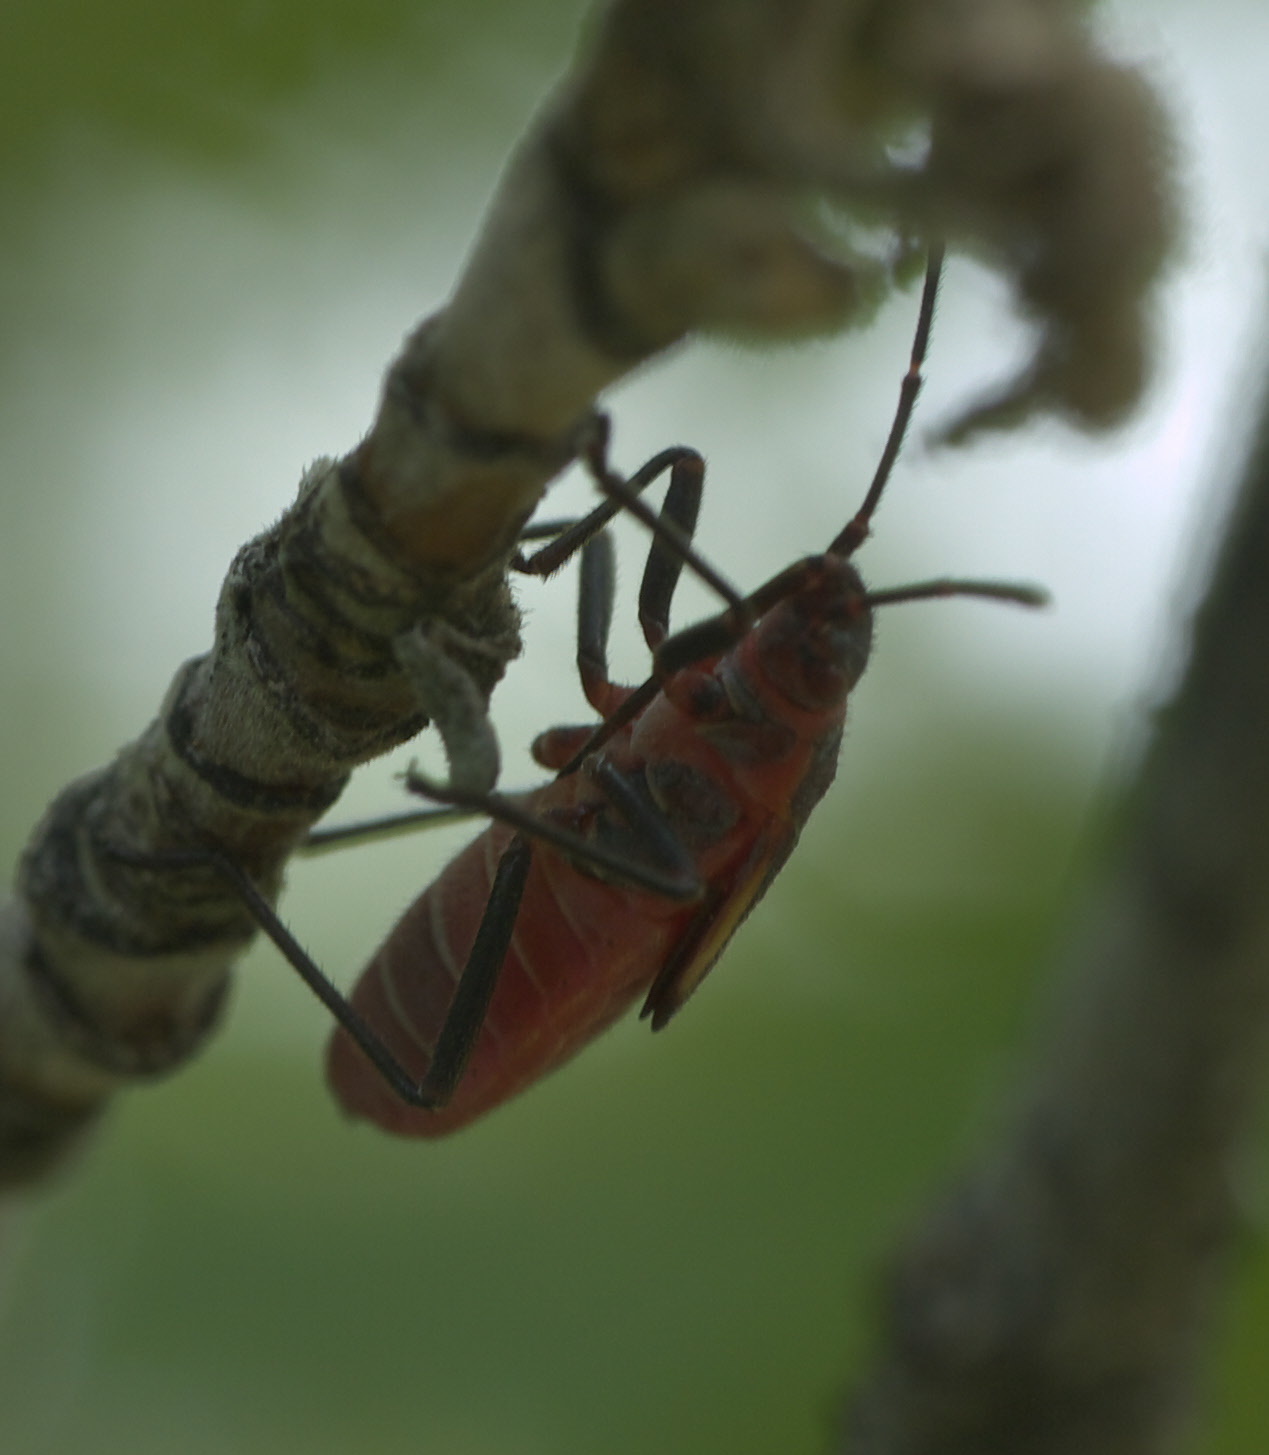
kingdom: Animalia
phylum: Arthropoda
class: Insecta
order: Hemiptera
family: Rhopalidae
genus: Boisea
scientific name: Boisea trivittata
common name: Boxelder bug
